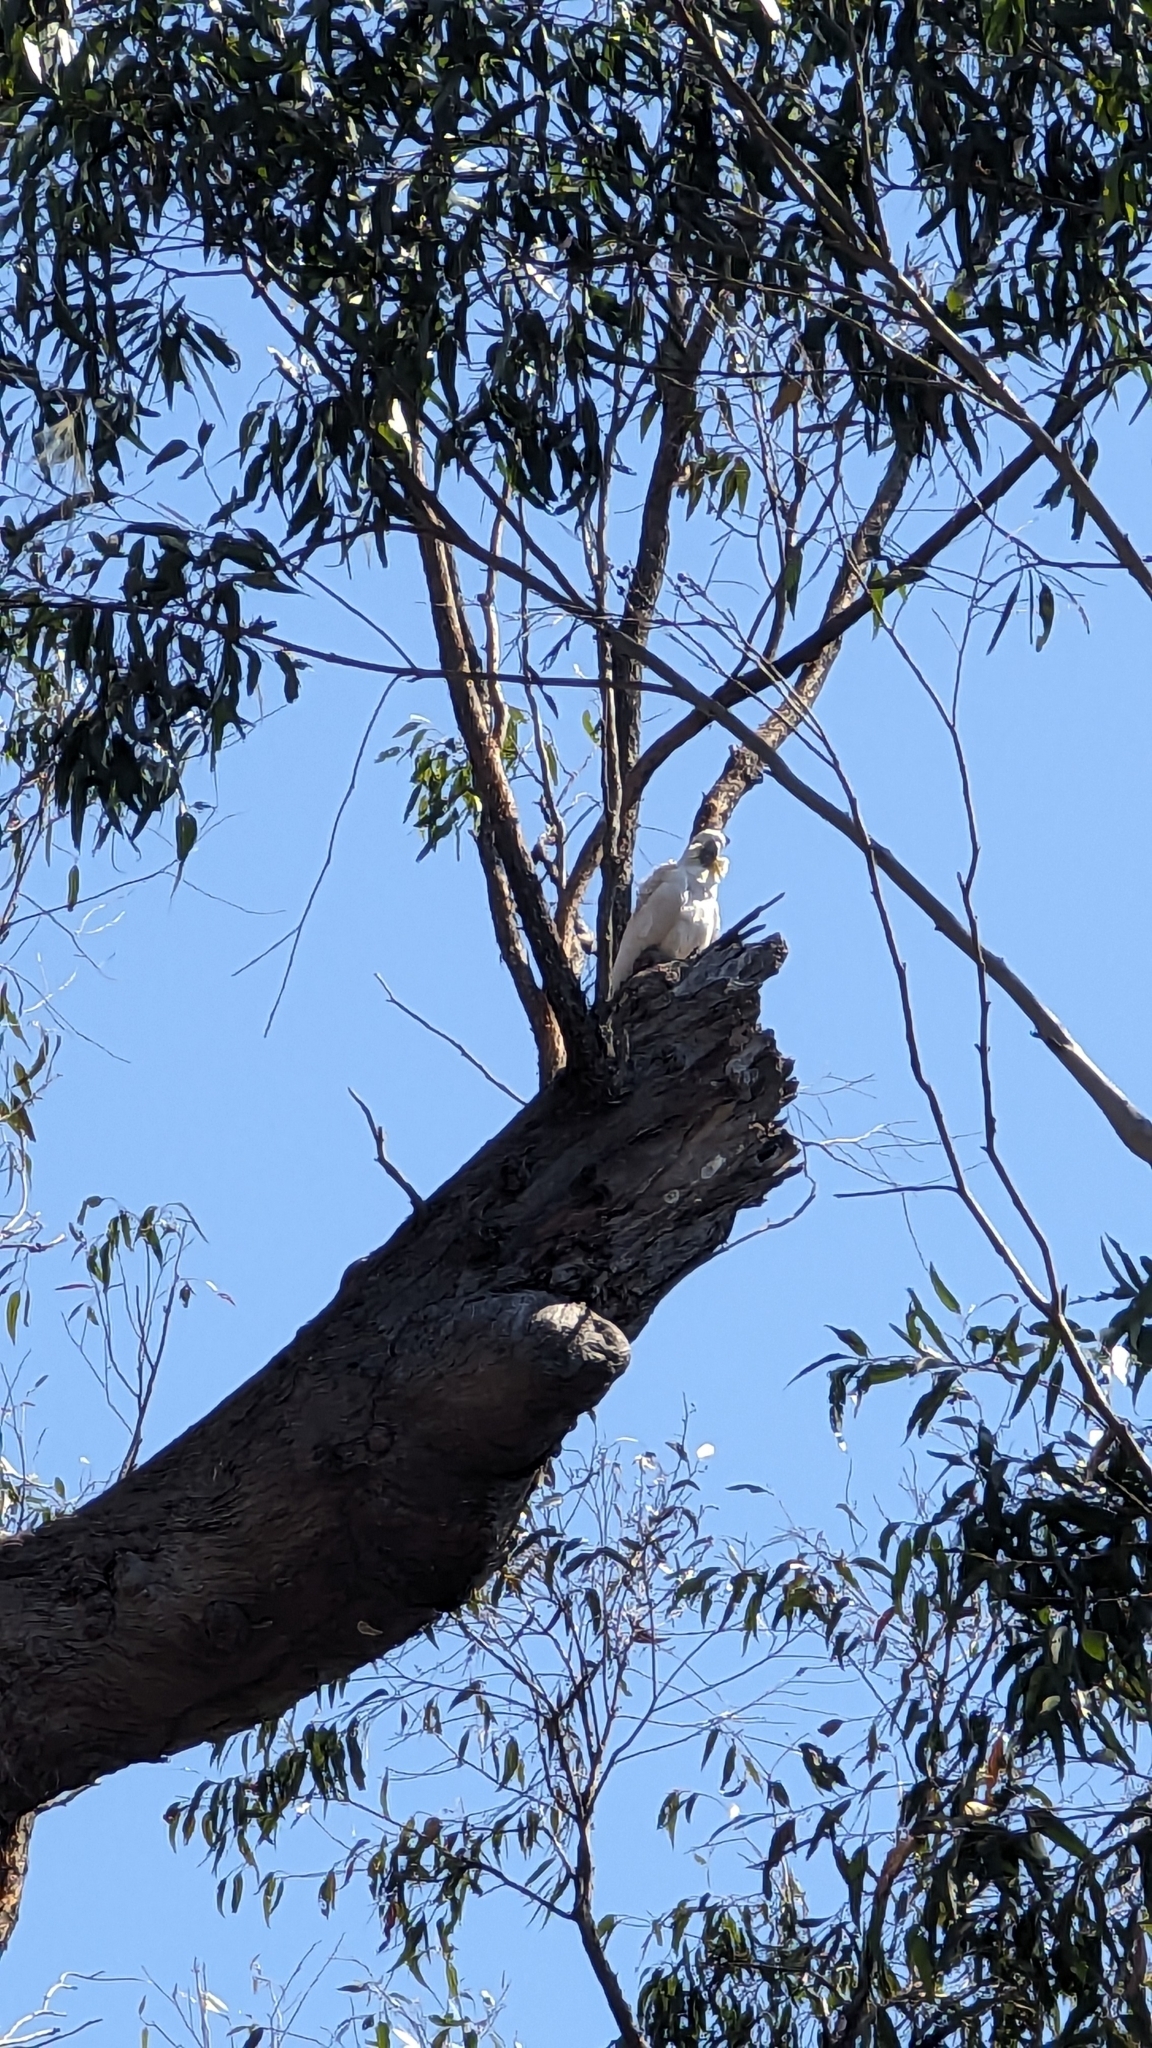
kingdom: Animalia
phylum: Chordata
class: Aves
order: Psittaciformes
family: Psittacidae
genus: Cacatua
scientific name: Cacatua galerita
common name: Sulphur-crested cockatoo
